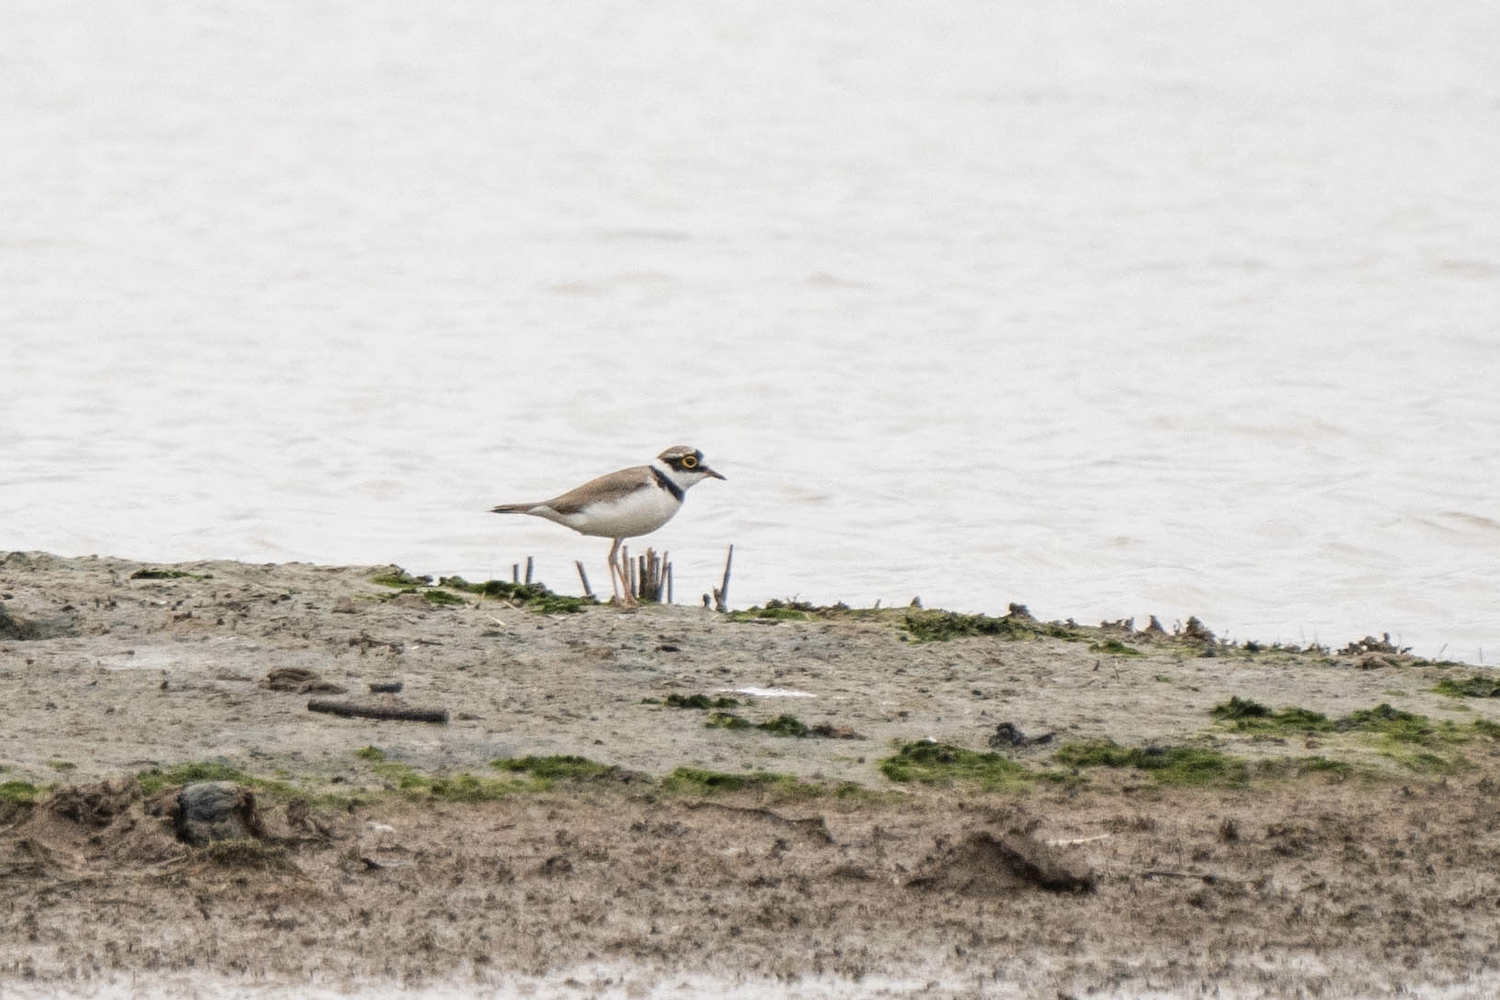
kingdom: Animalia
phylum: Chordata
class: Aves
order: Charadriiformes
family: Charadriidae
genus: Charadrius
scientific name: Charadrius dubius
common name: Little ringed plover
